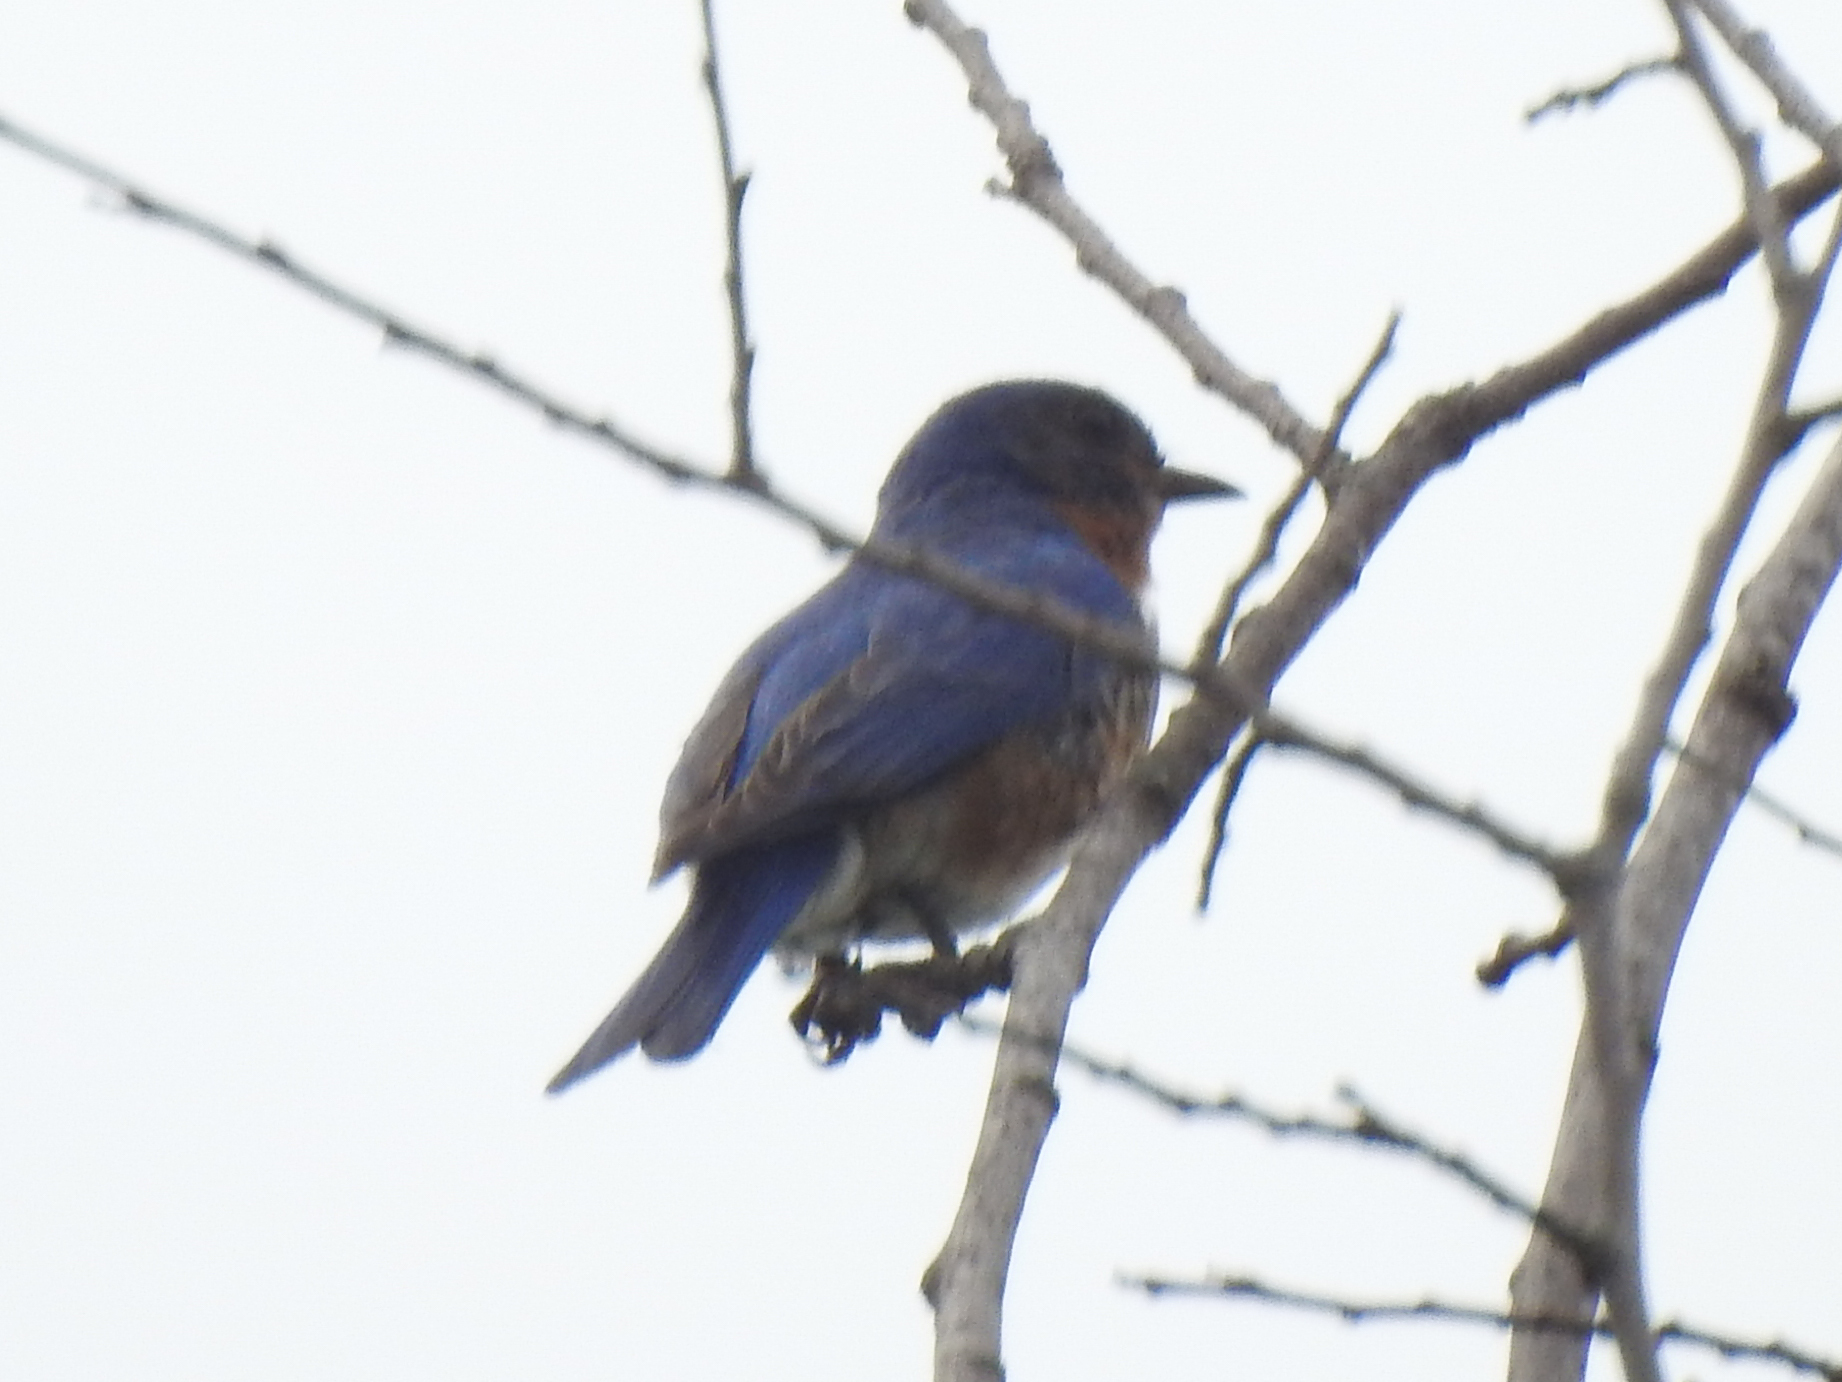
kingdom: Animalia
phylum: Chordata
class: Aves
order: Passeriformes
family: Turdidae
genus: Sialia
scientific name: Sialia sialis
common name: Eastern bluebird
